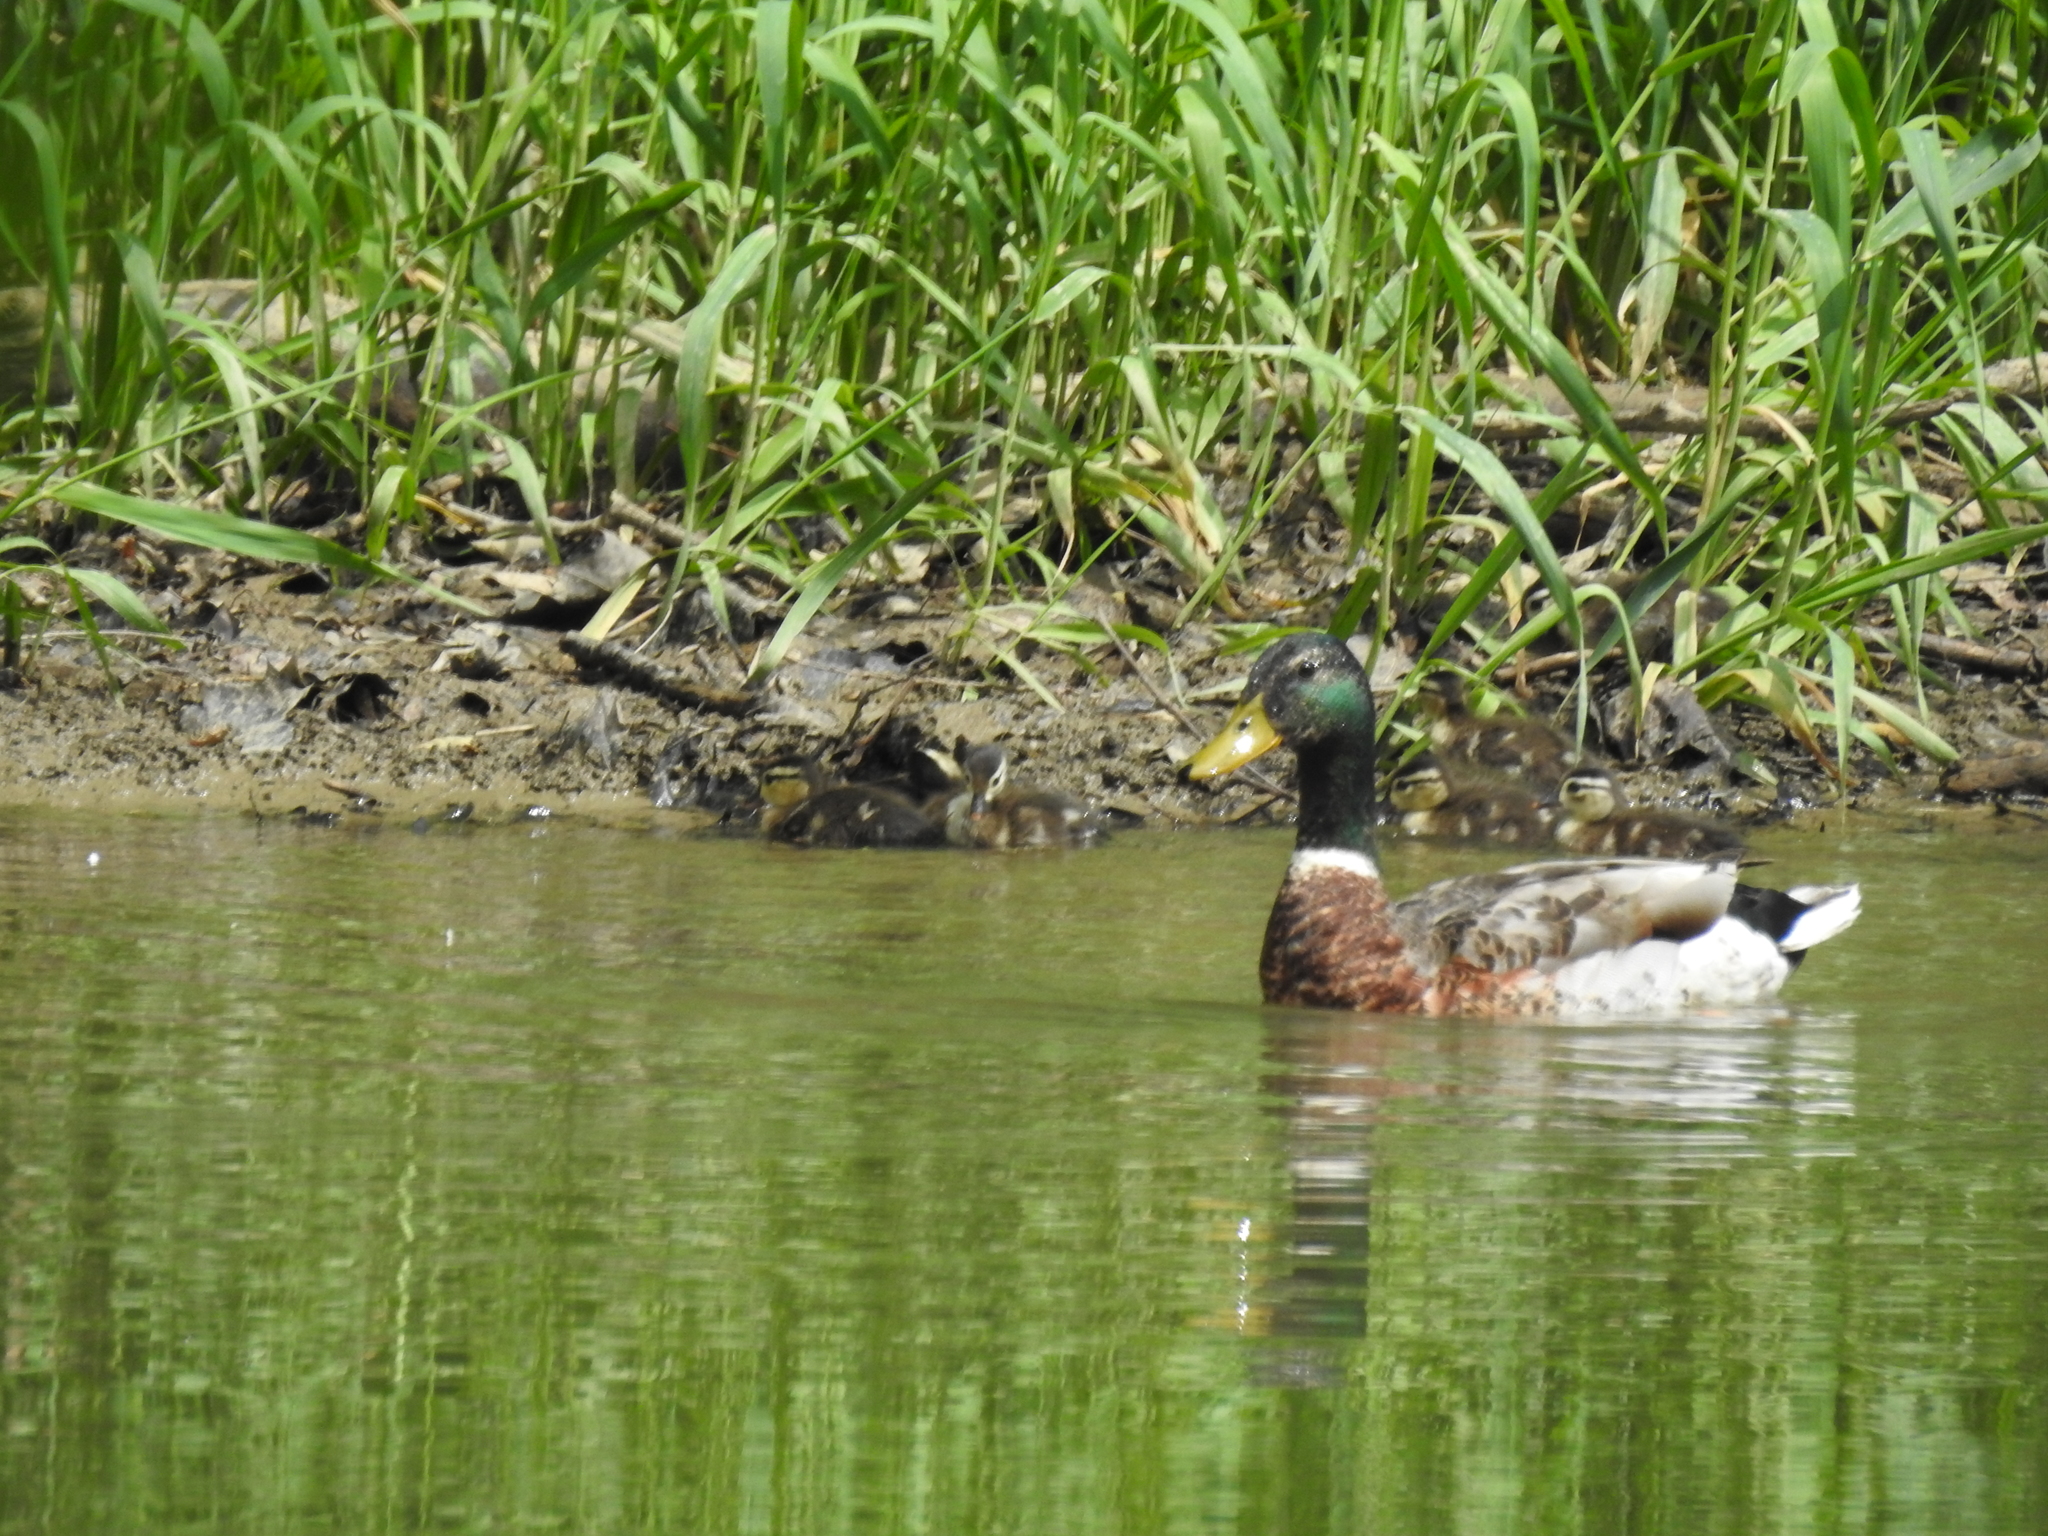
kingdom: Animalia
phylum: Chordata
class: Aves
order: Anseriformes
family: Anatidae
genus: Anas
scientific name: Anas platyrhynchos
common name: Mallard
